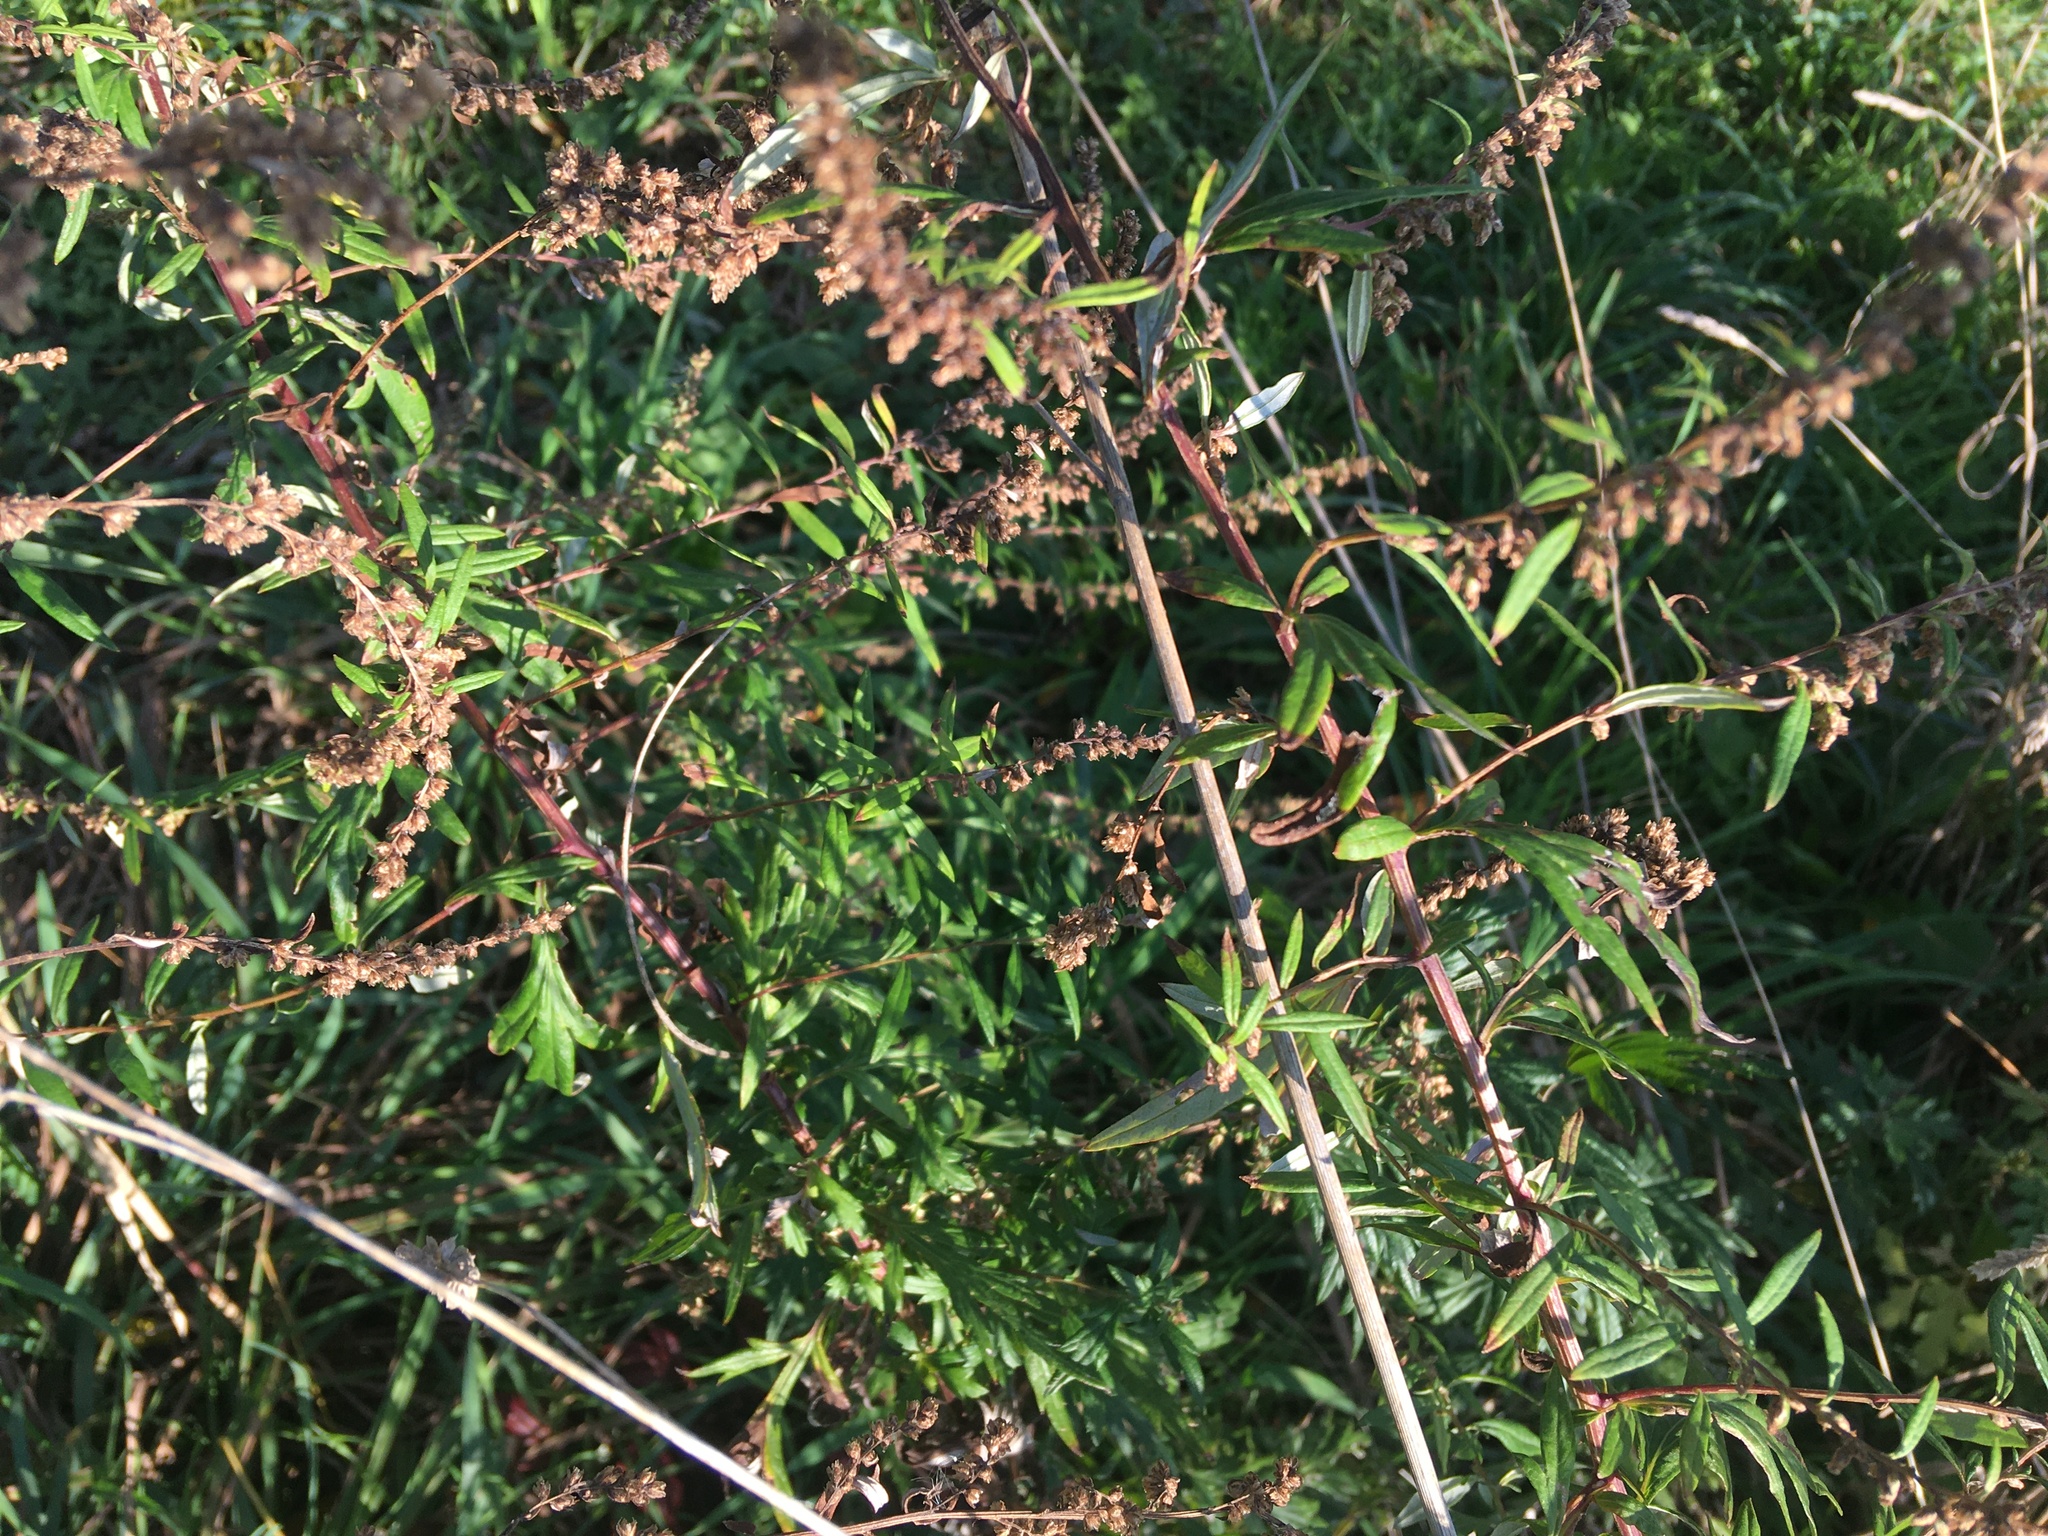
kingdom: Plantae
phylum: Tracheophyta
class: Magnoliopsida
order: Asterales
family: Asteraceae
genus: Artemisia
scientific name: Artemisia vulgaris
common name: Mugwort
